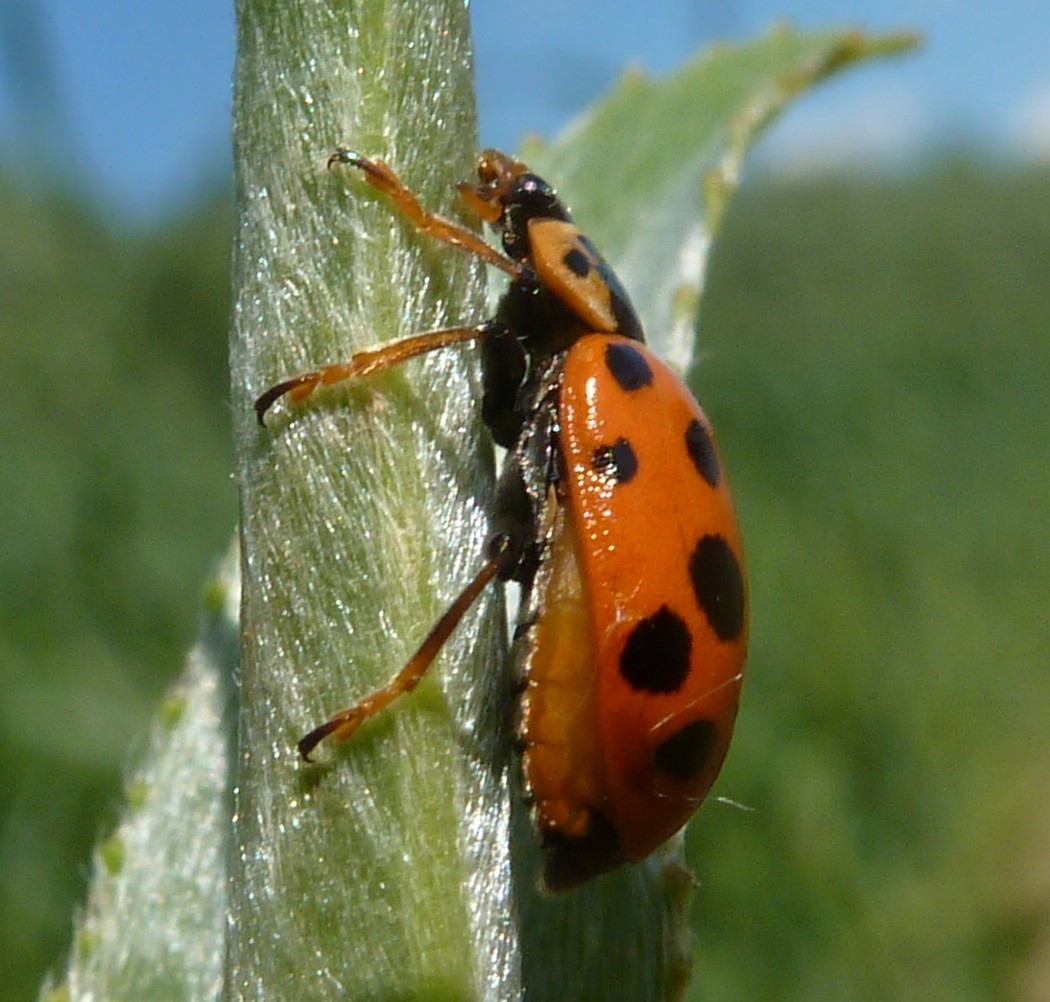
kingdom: Animalia
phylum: Arthropoda
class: Insecta
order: Coleoptera
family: Coccinellidae
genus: Hippodamia
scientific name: Hippodamia tredecimpunctata
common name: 13-spot ladybird
